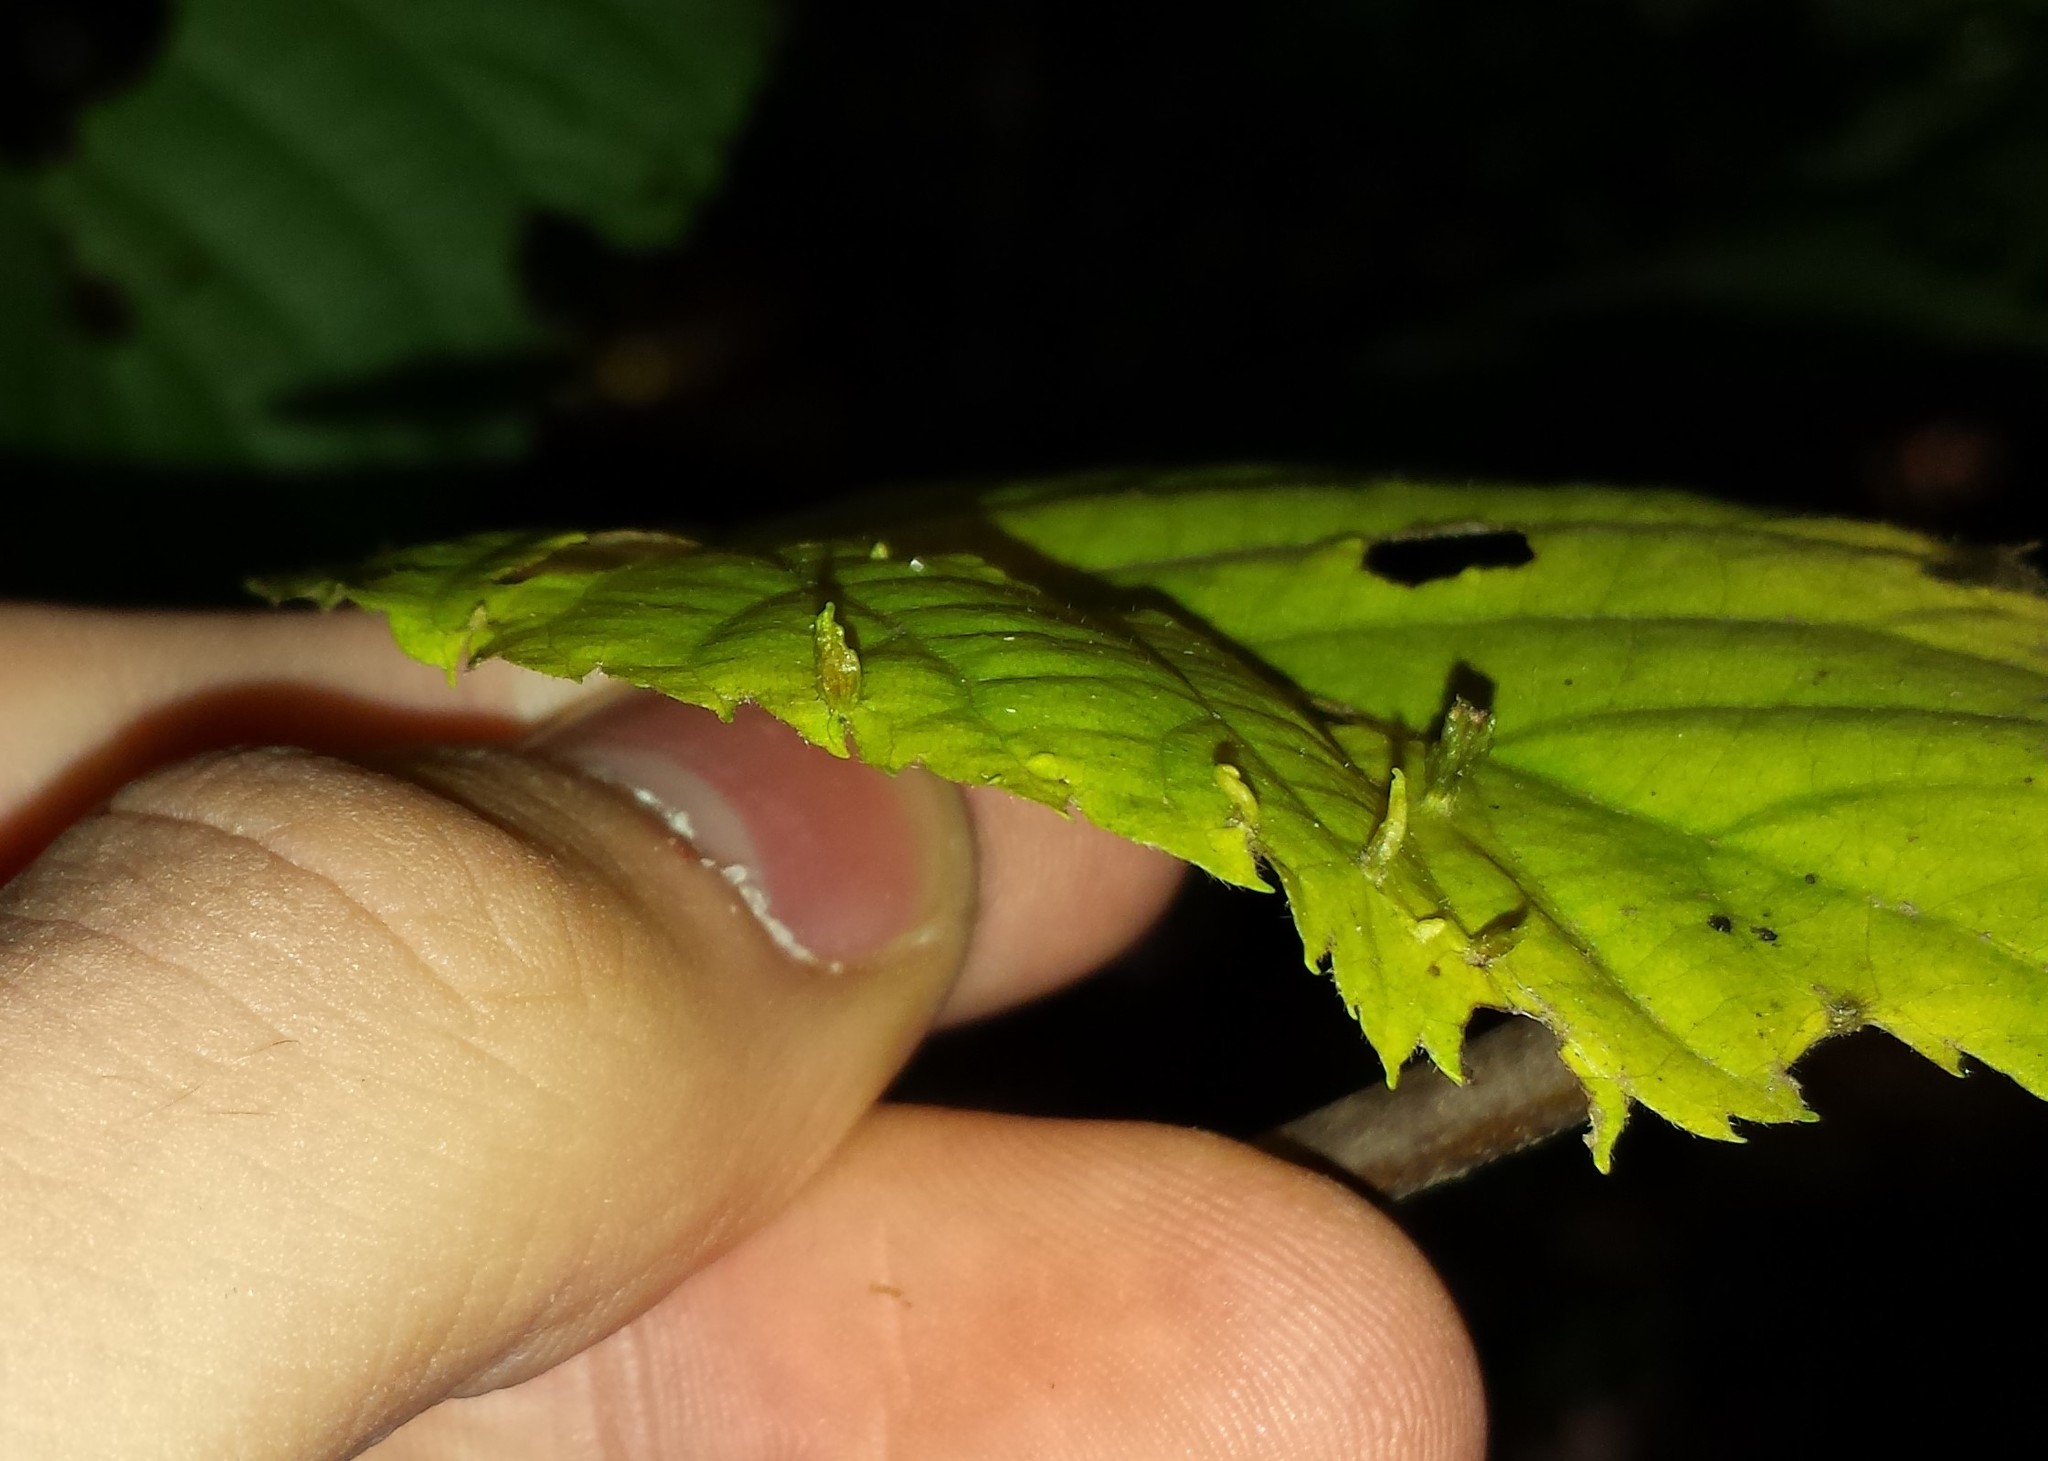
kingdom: Animalia
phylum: Arthropoda
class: Arachnida
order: Trombidiformes
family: Eriophyidae
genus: Eriophyes
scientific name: Eriophyes tiliae
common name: Red nail gall mite
